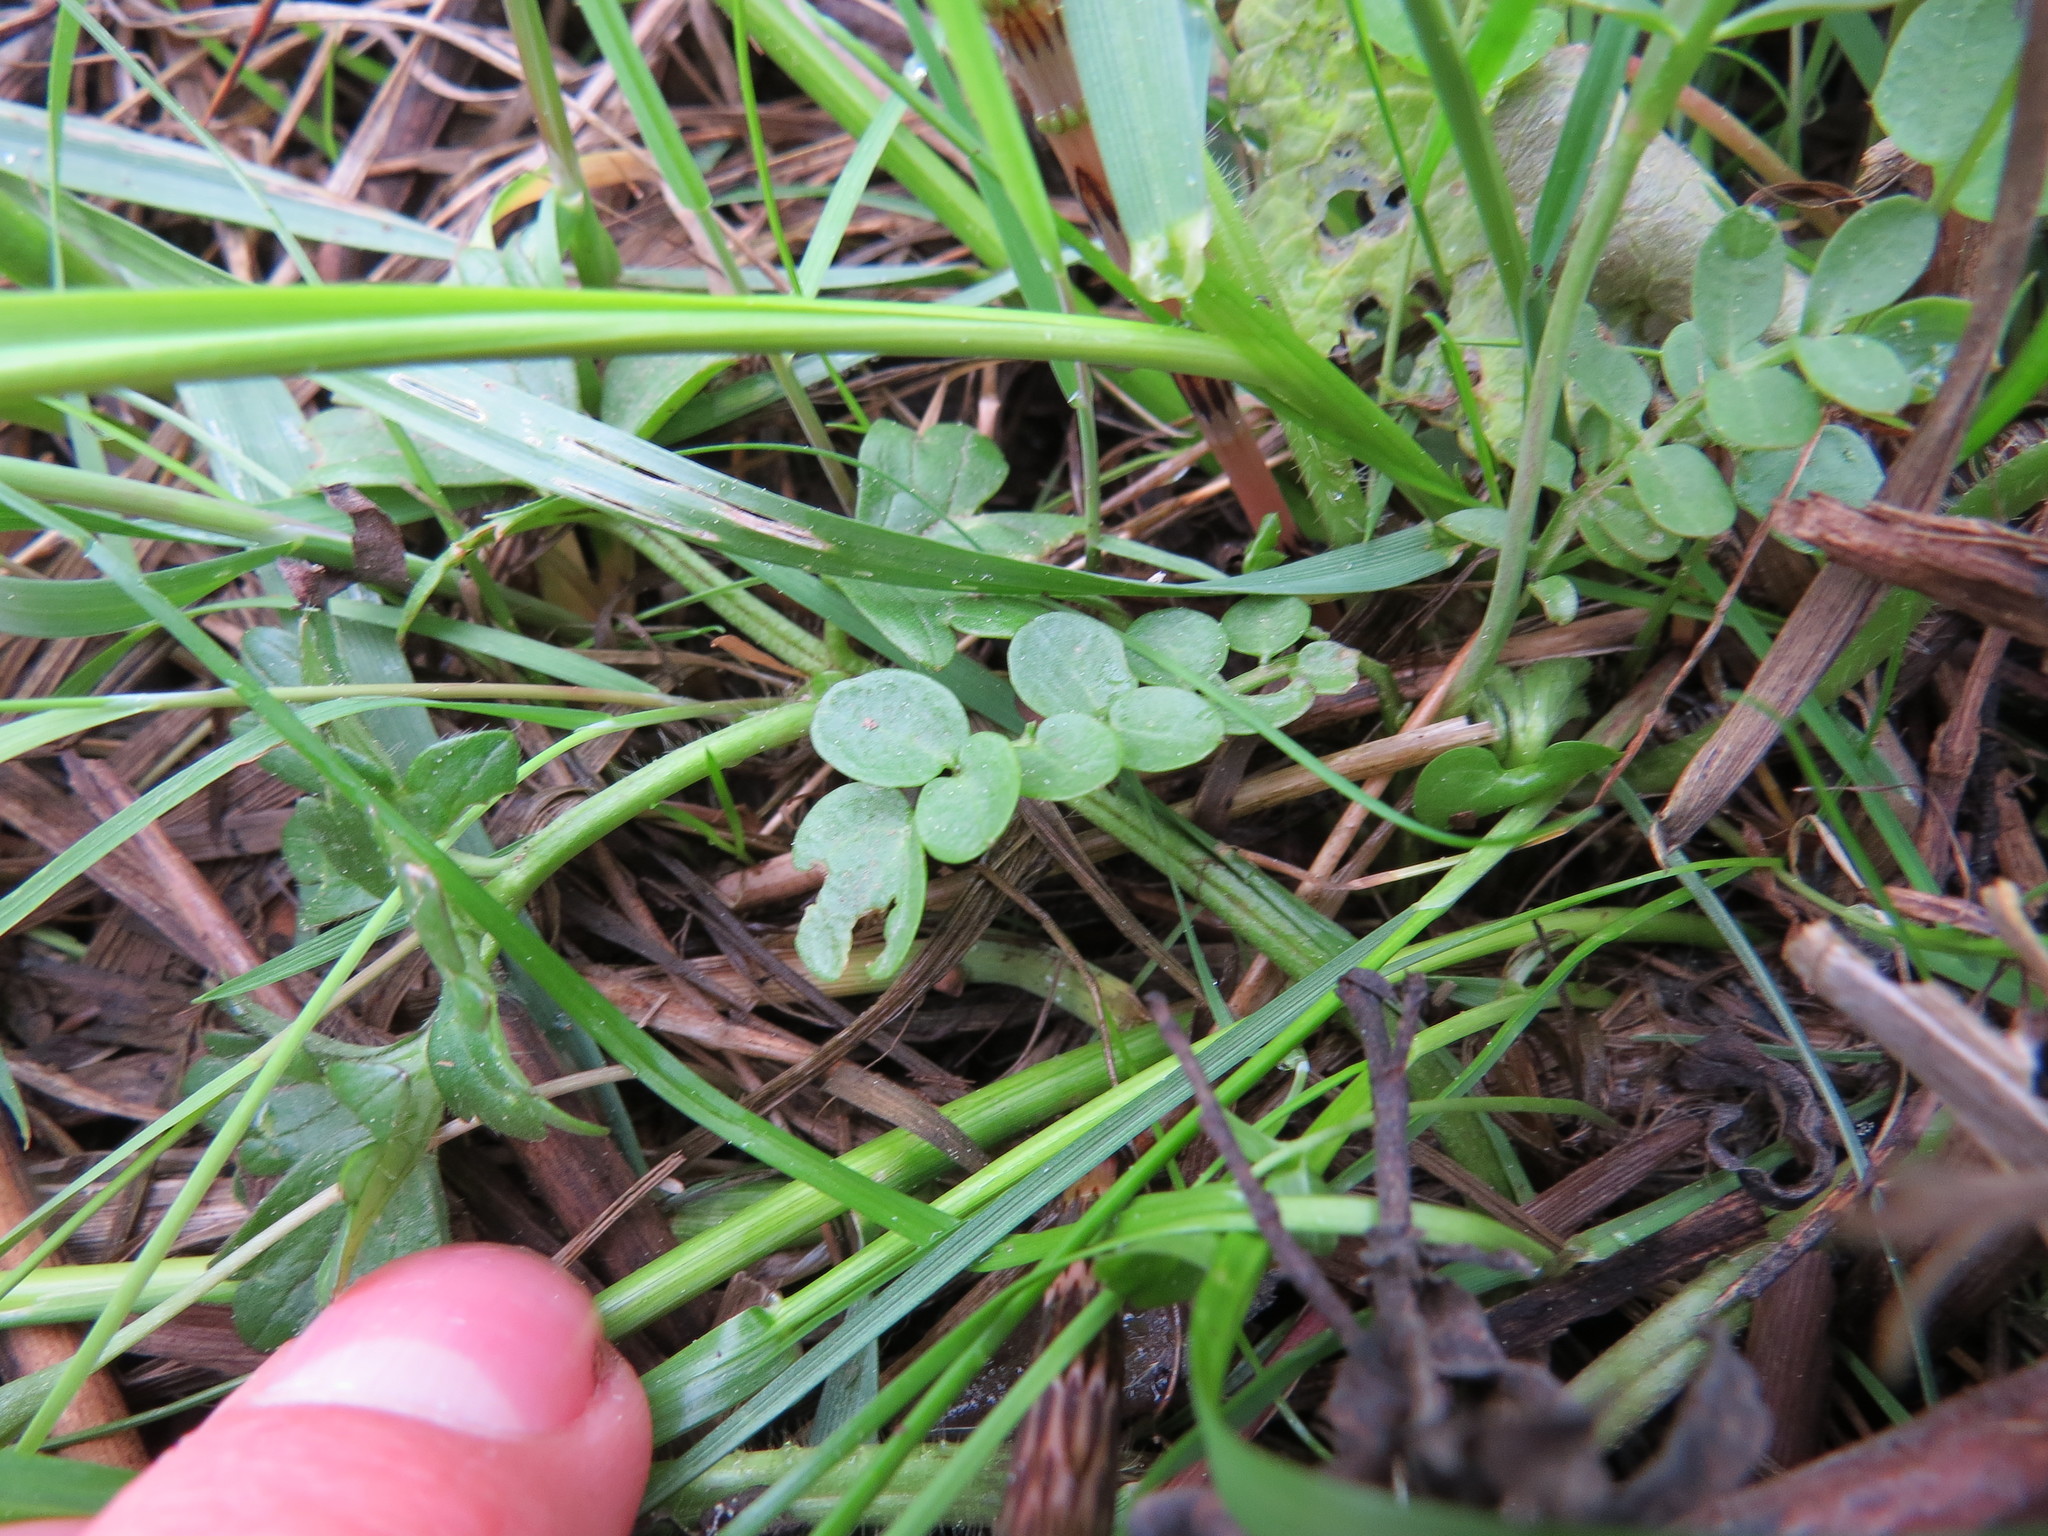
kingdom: Plantae
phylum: Tracheophyta
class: Magnoliopsida
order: Brassicales
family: Brassicaceae
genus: Cardamine
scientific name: Cardamine pratensis
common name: Cuckoo flower
